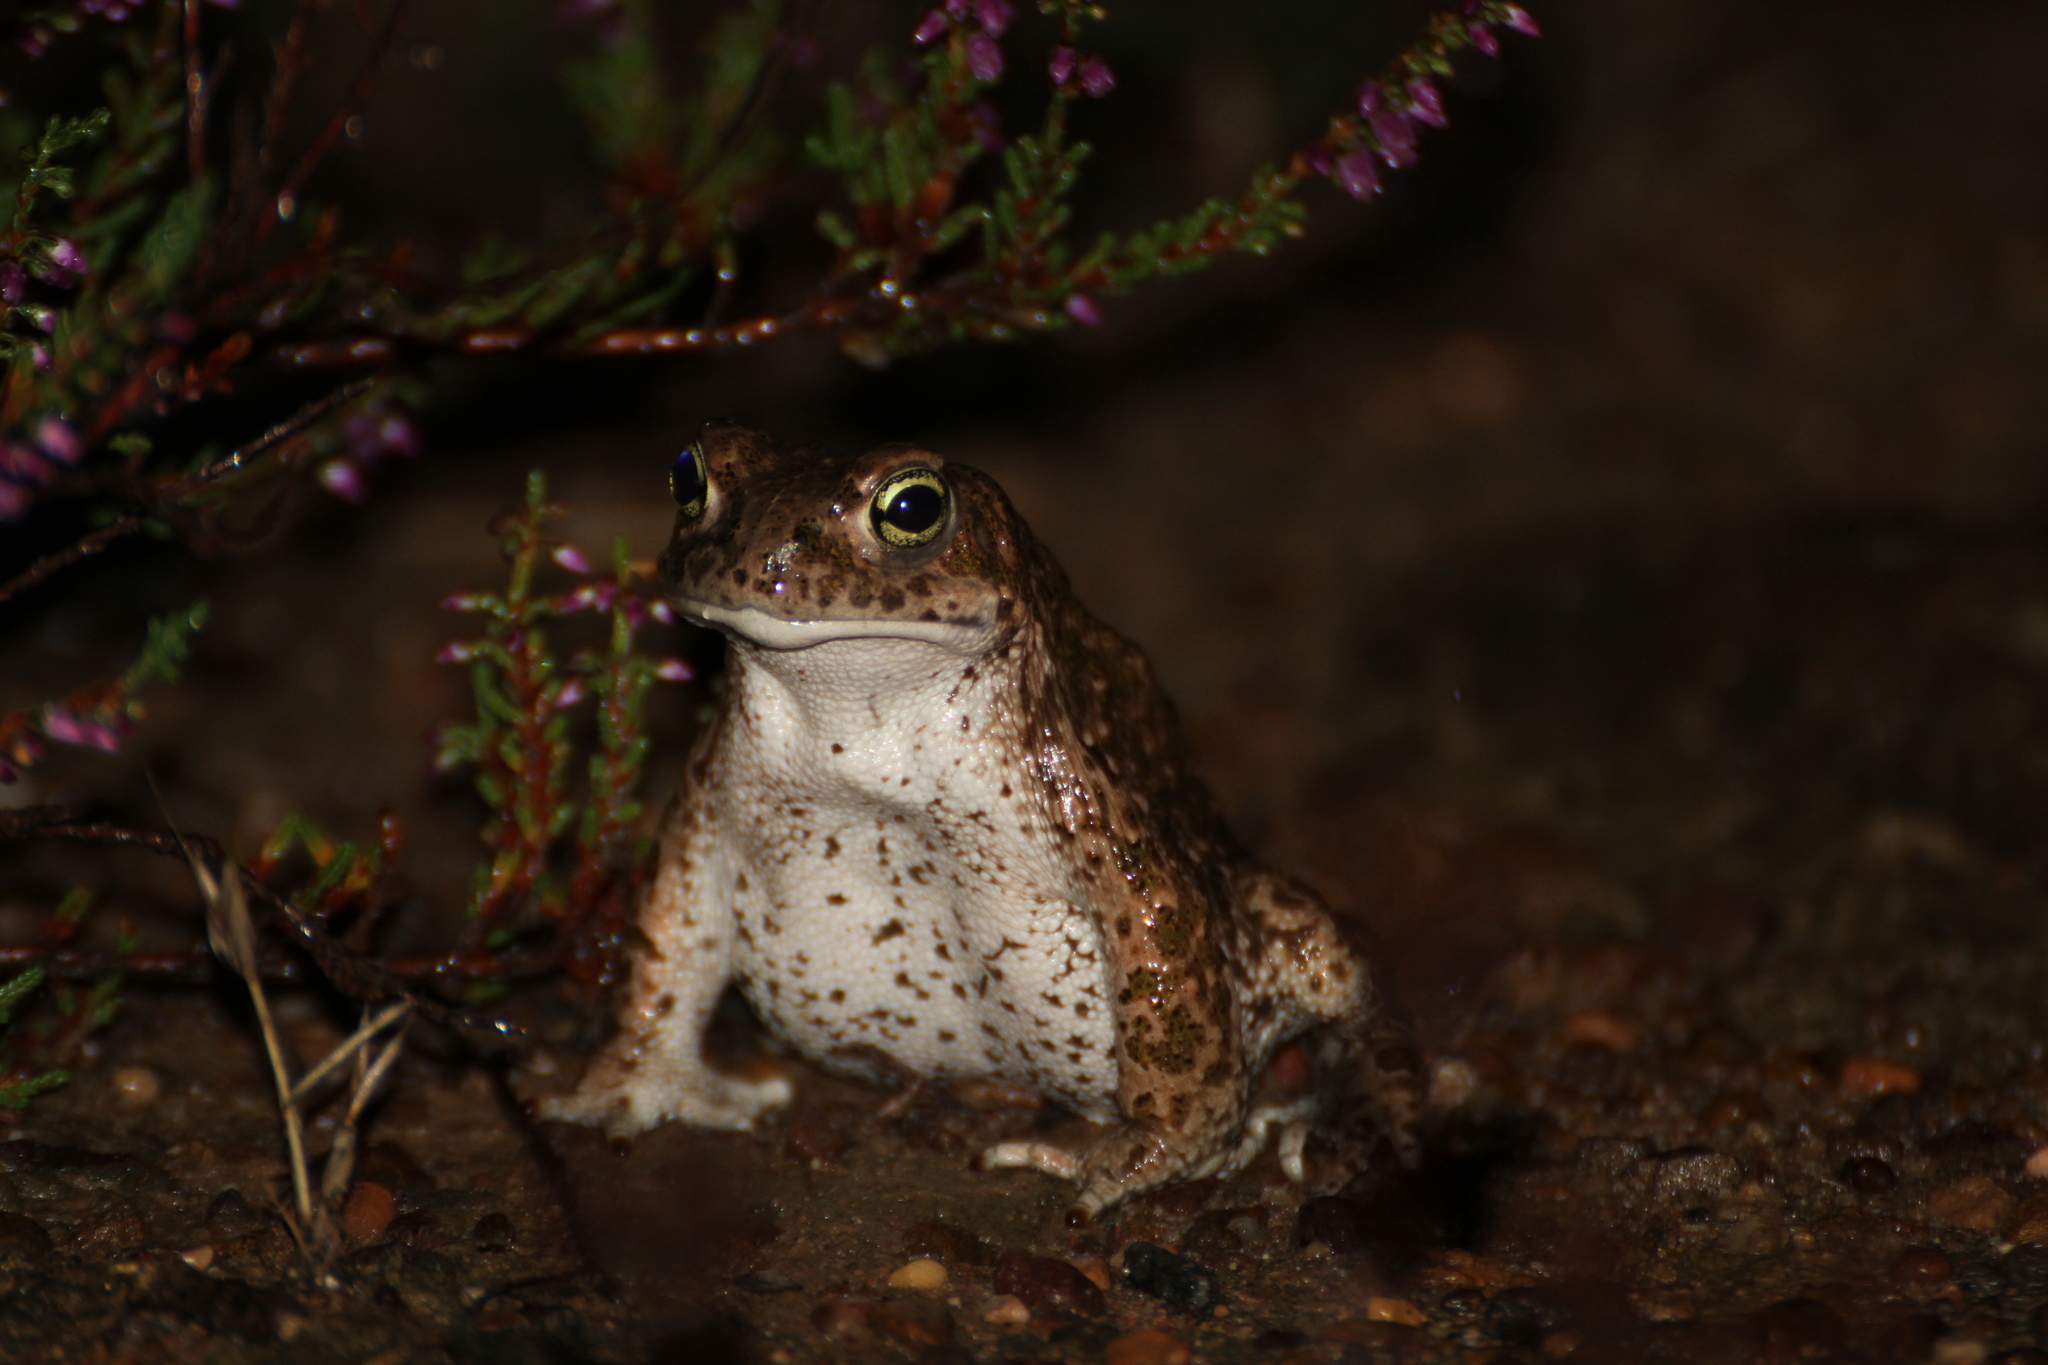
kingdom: Animalia
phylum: Chordata
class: Amphibia
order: Anura
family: Bufonidae
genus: Epidalea
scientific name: Epidalea calamita
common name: Natterjack toad
